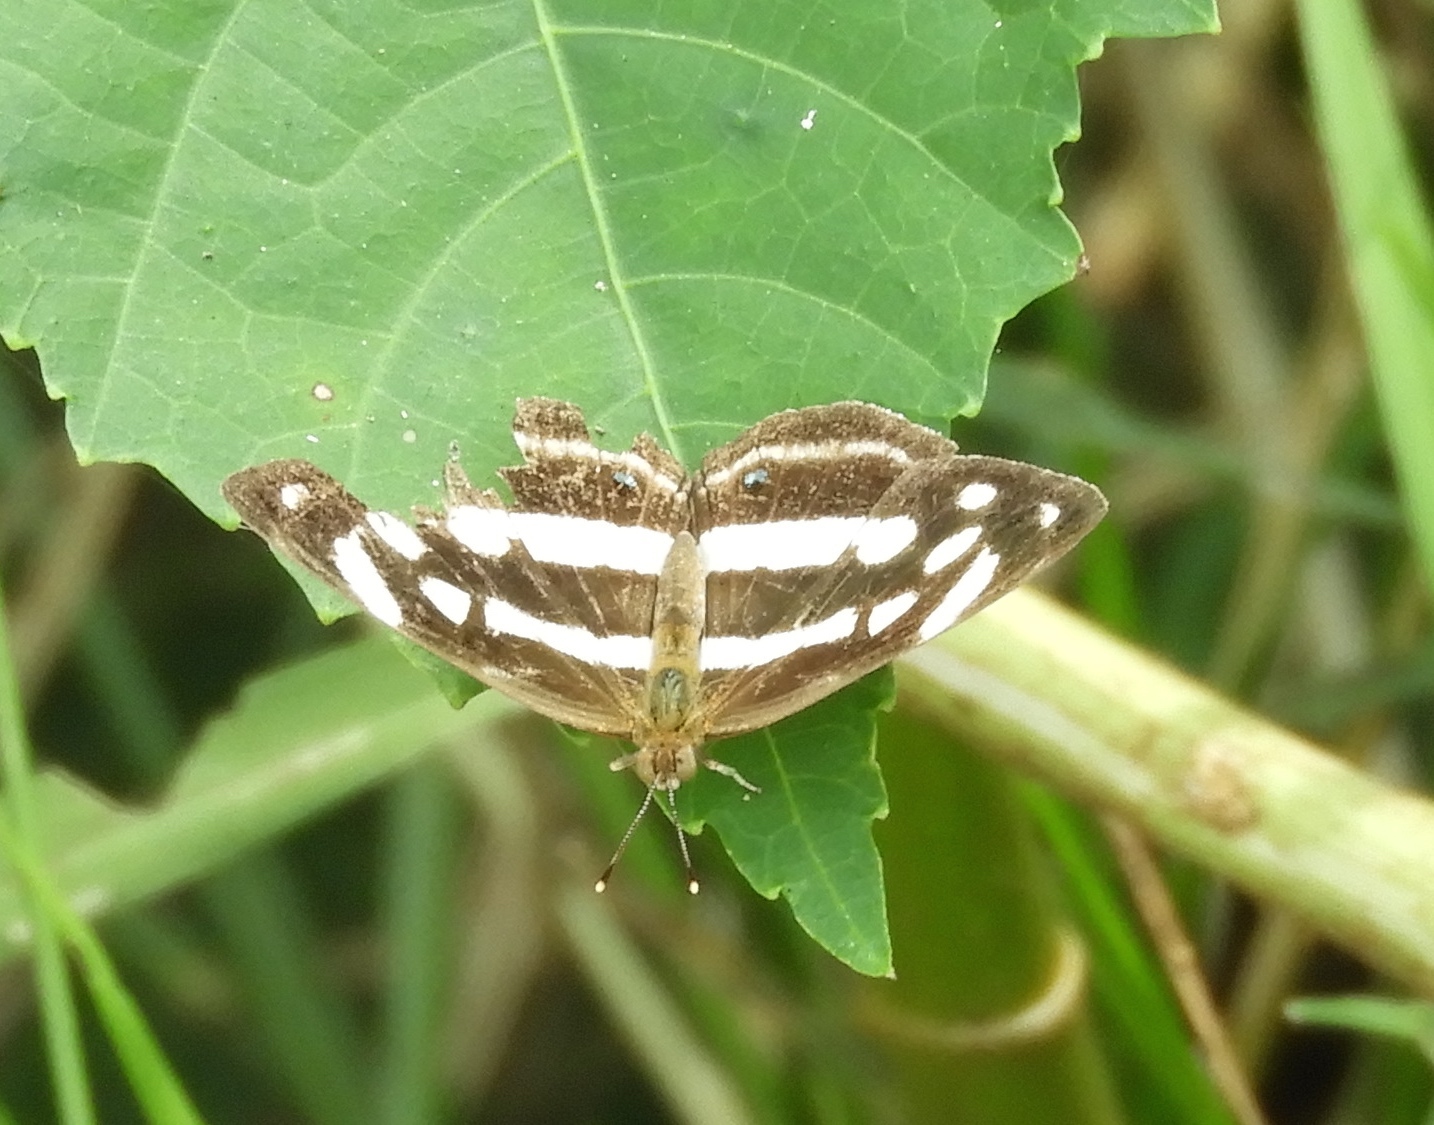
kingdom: Animalia
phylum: Arthropoda
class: Insecta
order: Lepidoptera
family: Nymphalidae
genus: Dynamine
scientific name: Dynamine mylitta
